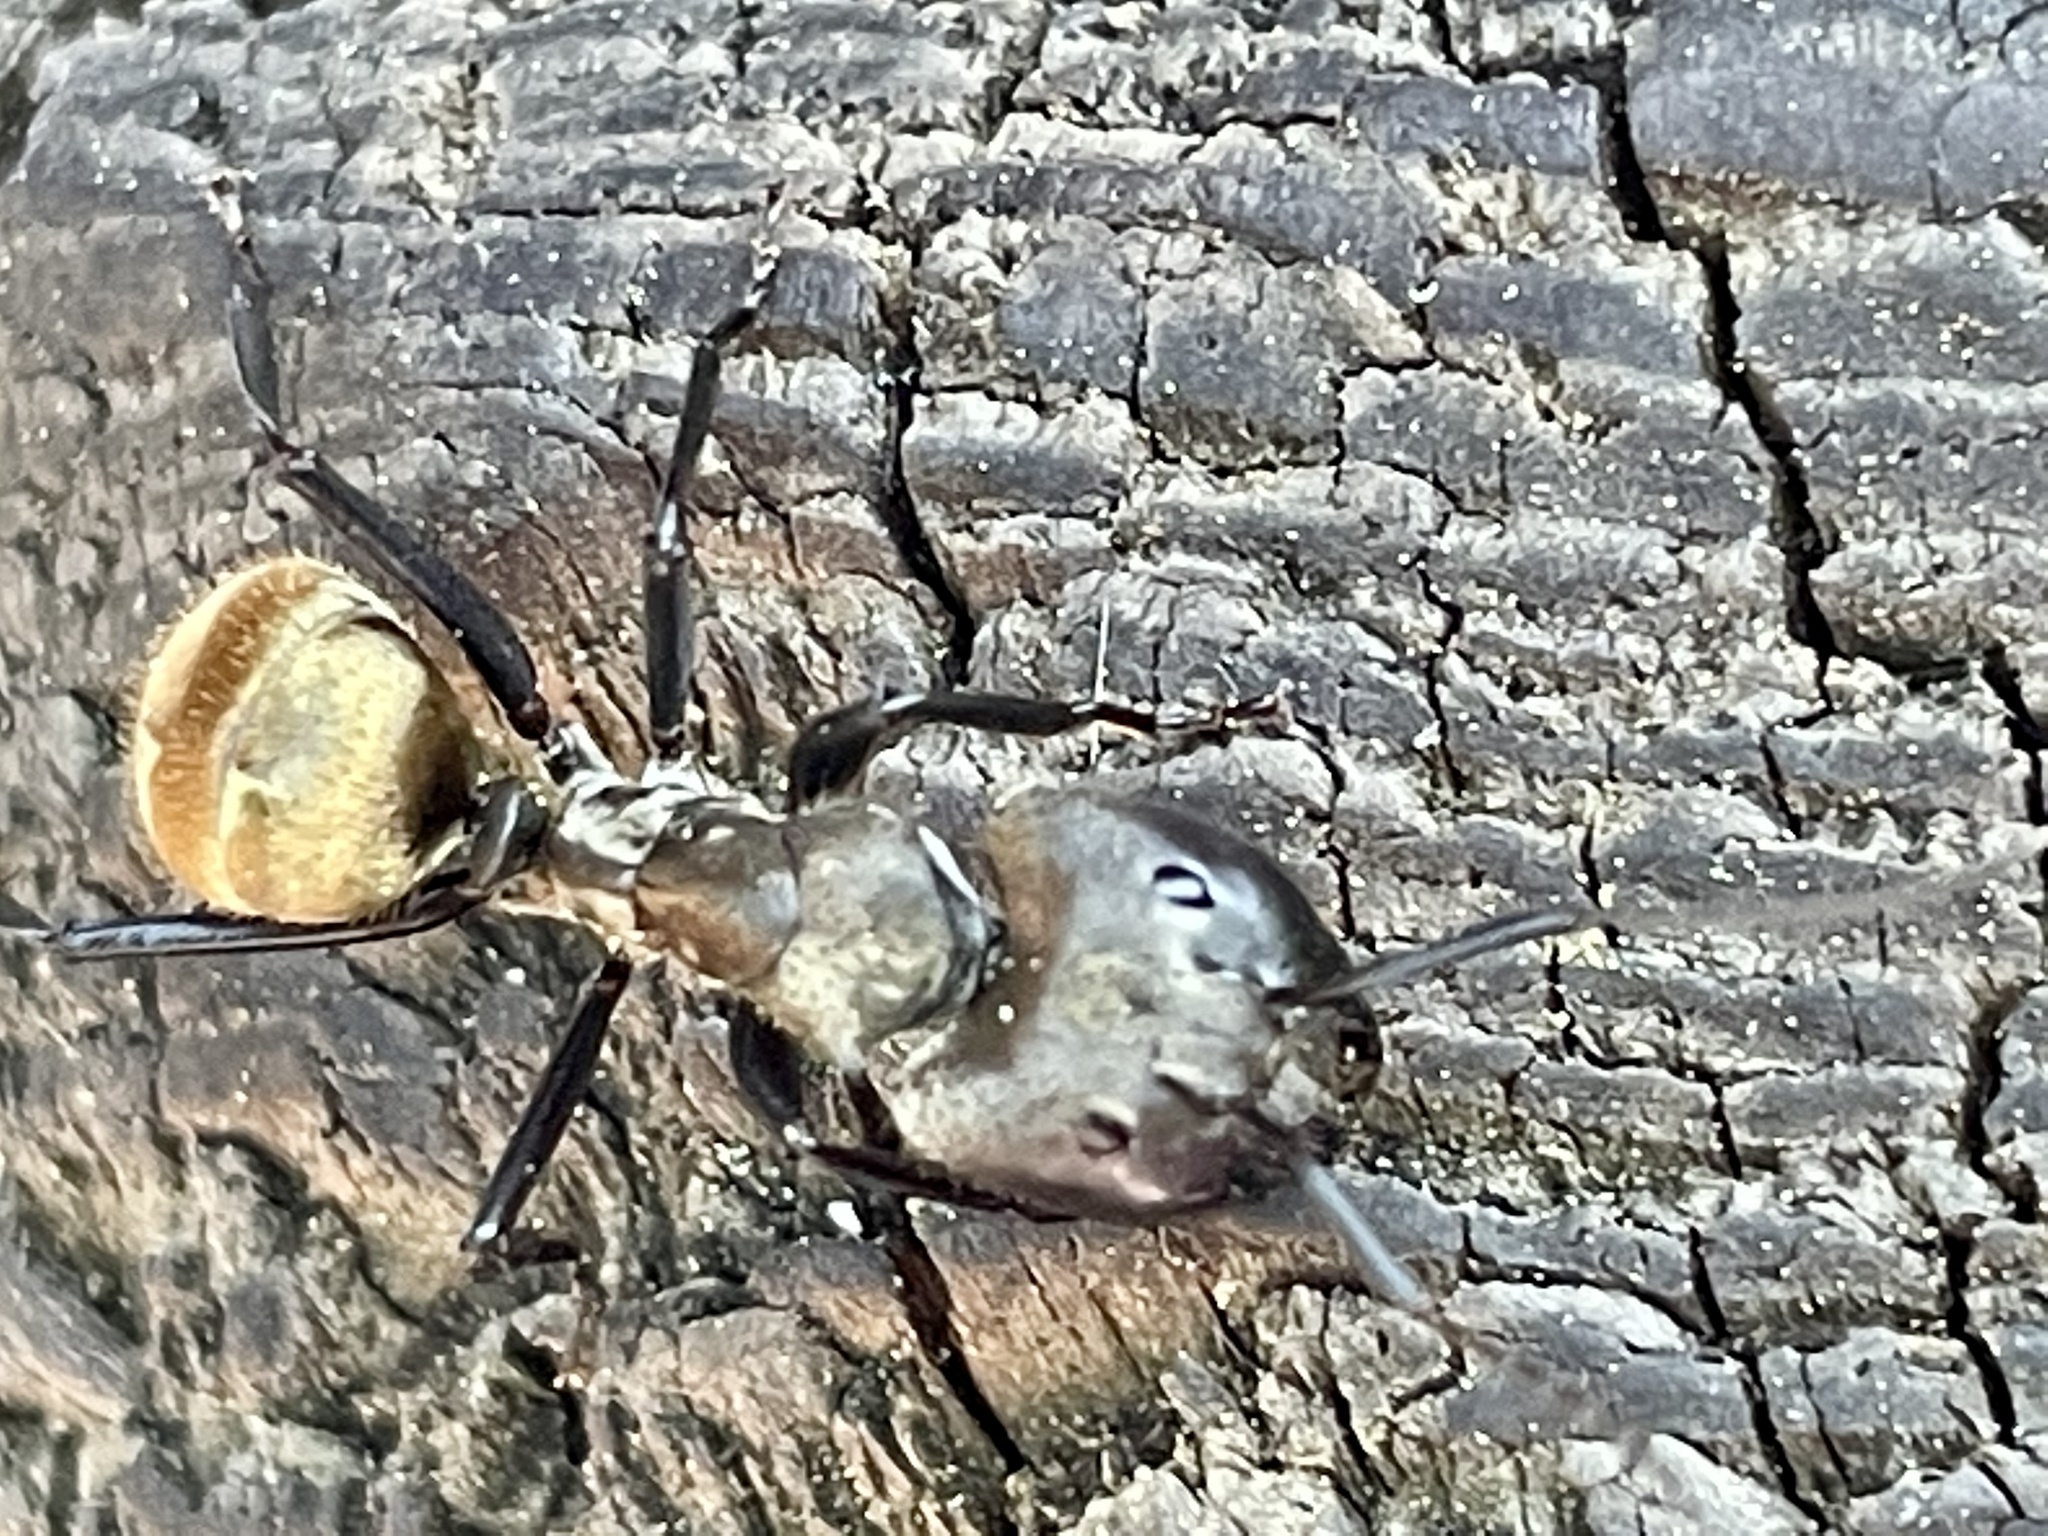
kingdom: Animalia
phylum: Arthropoda
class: Insecta
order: Hymenoptera
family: Formicidae
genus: Camponotus
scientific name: Camponotus sericeiventris
